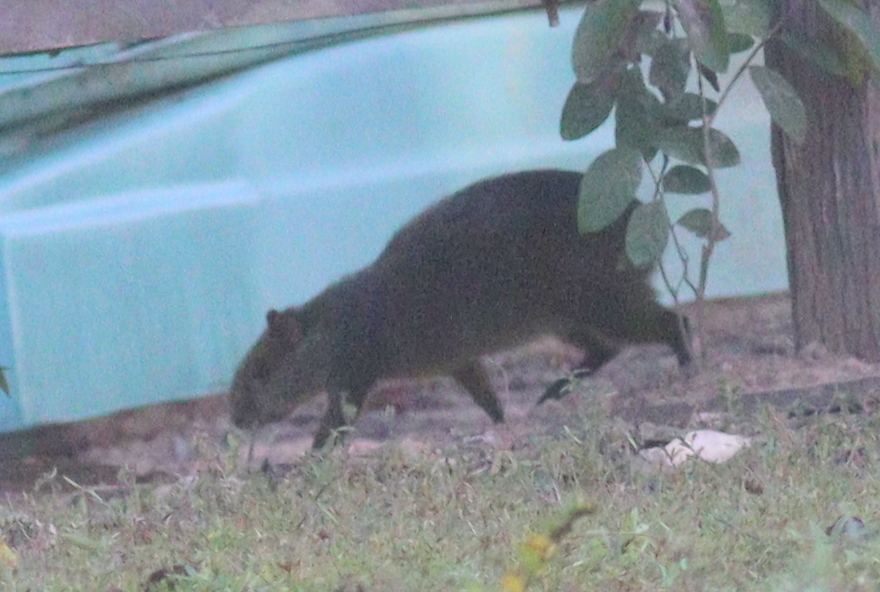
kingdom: Animalia
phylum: Chordata
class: Mammalia
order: Rodentia
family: Dasyproctidae
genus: Dasyprocta
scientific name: Dasyprocta azarae
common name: Azara's agouti
